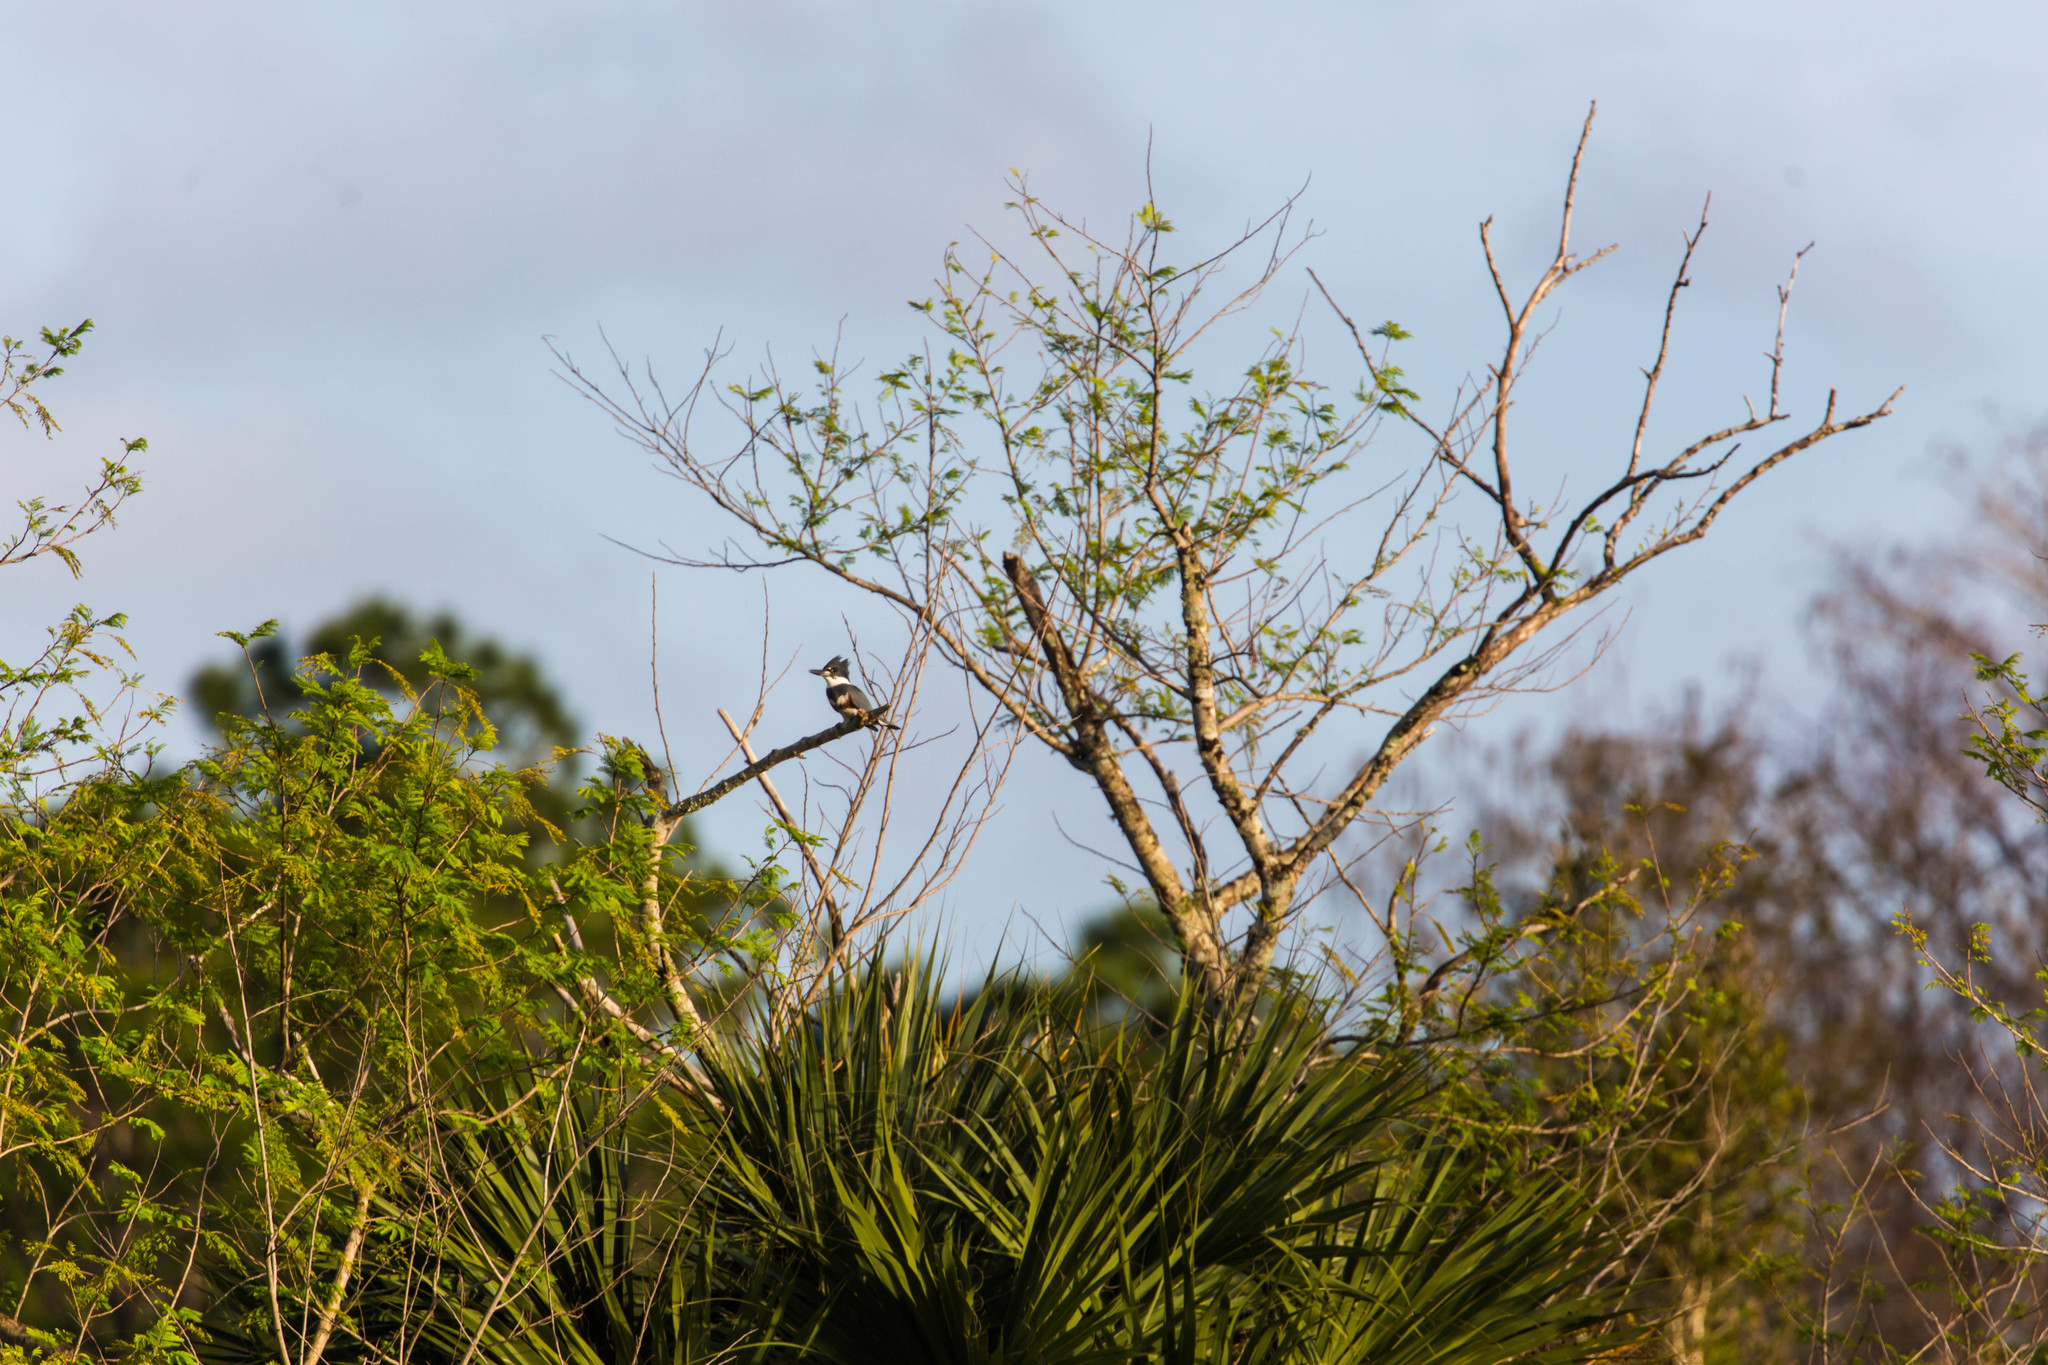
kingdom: Animalia
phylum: Chordata
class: Aves
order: Coraciiformes
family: Alcedinidae
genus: Megaceryle
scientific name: Megaceryle alcyon
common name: Belted kingfisher
